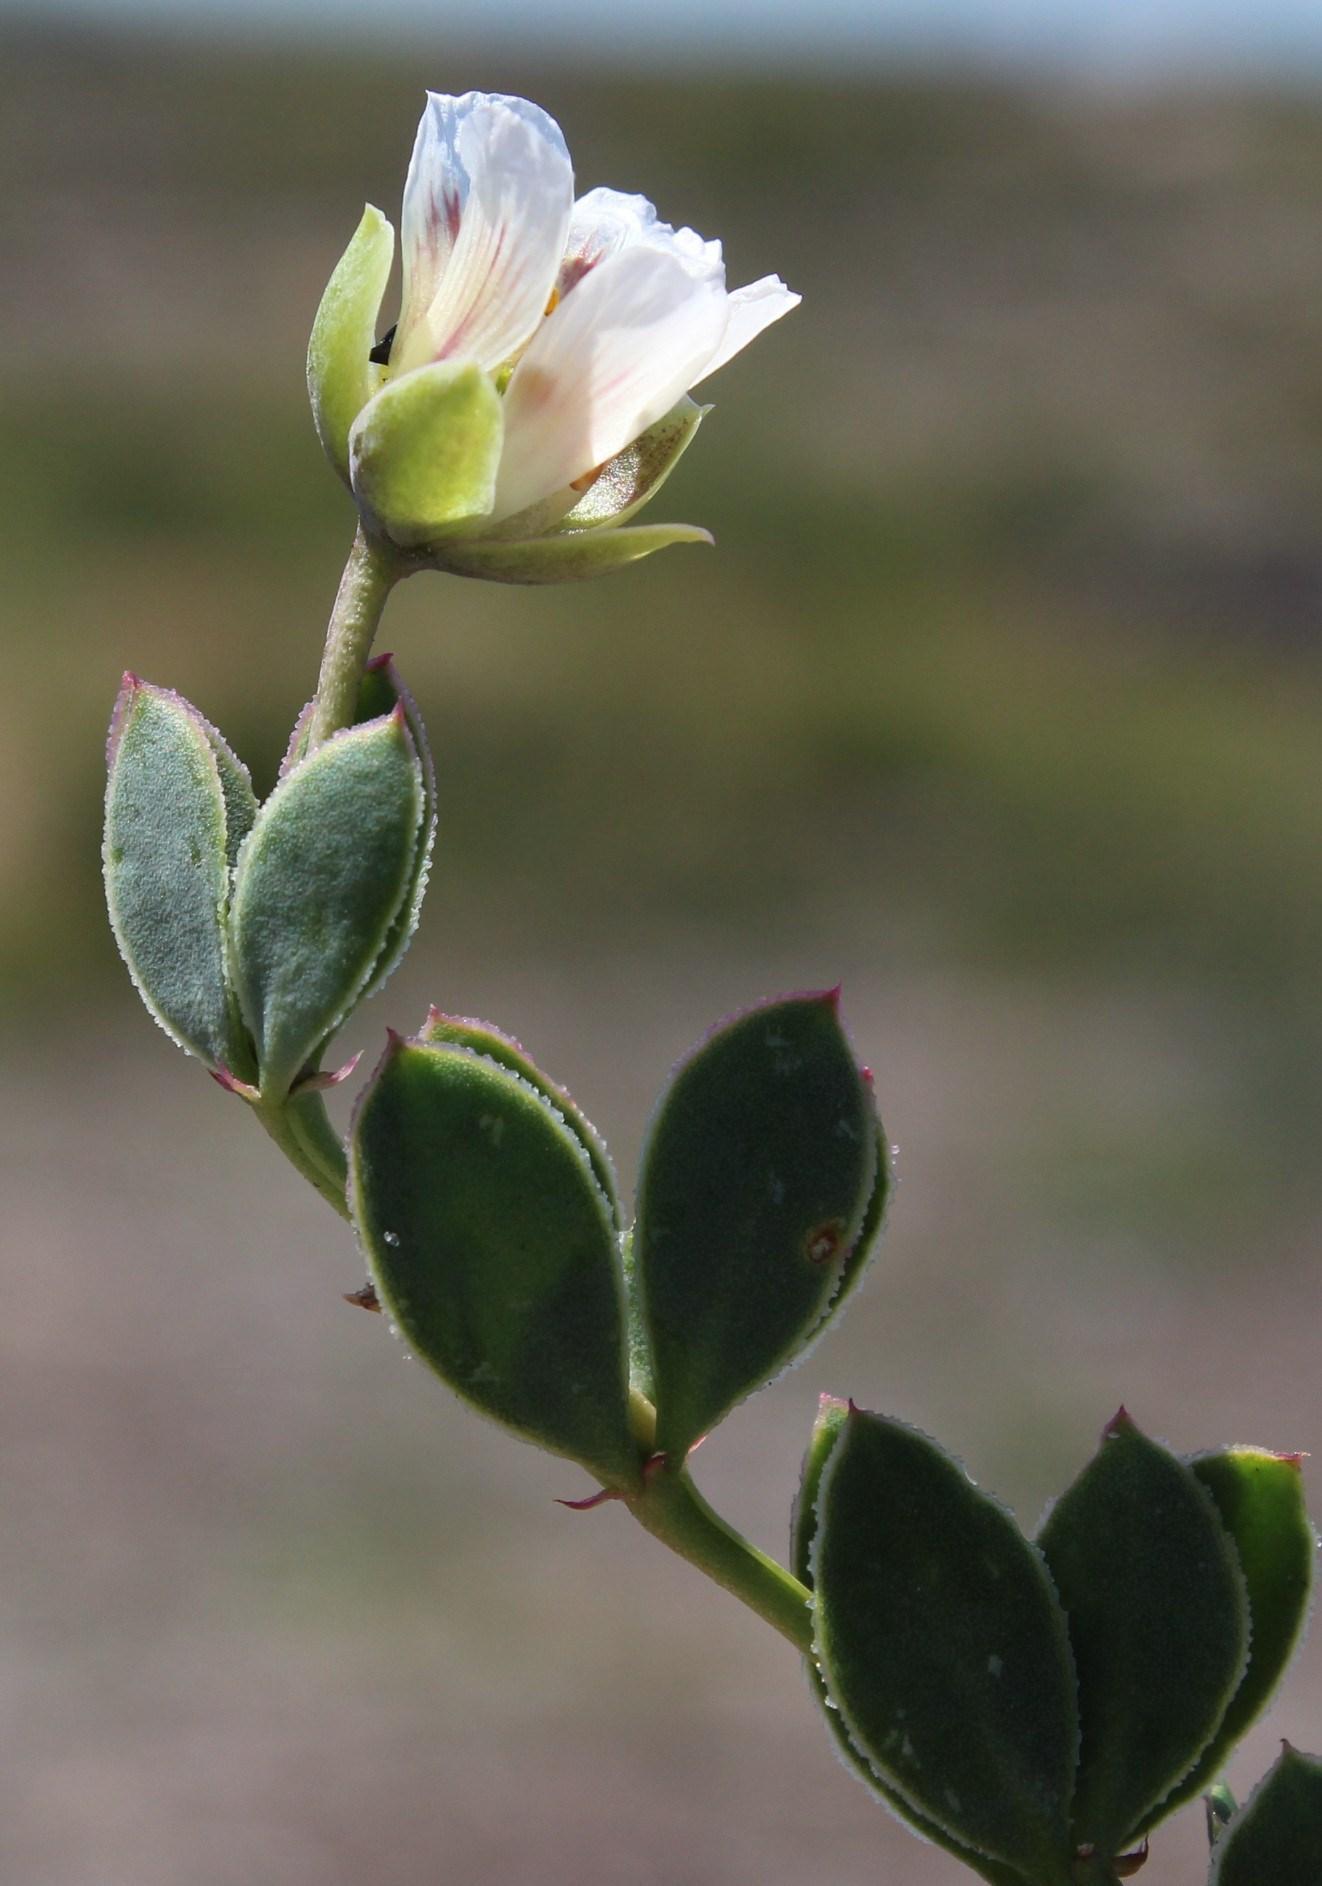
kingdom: Plantae
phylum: Tracheophyta
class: Magnoliopsida
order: Zygophyllales
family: Zygophyllaceae
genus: Roepera
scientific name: Roepera sessilifolia
